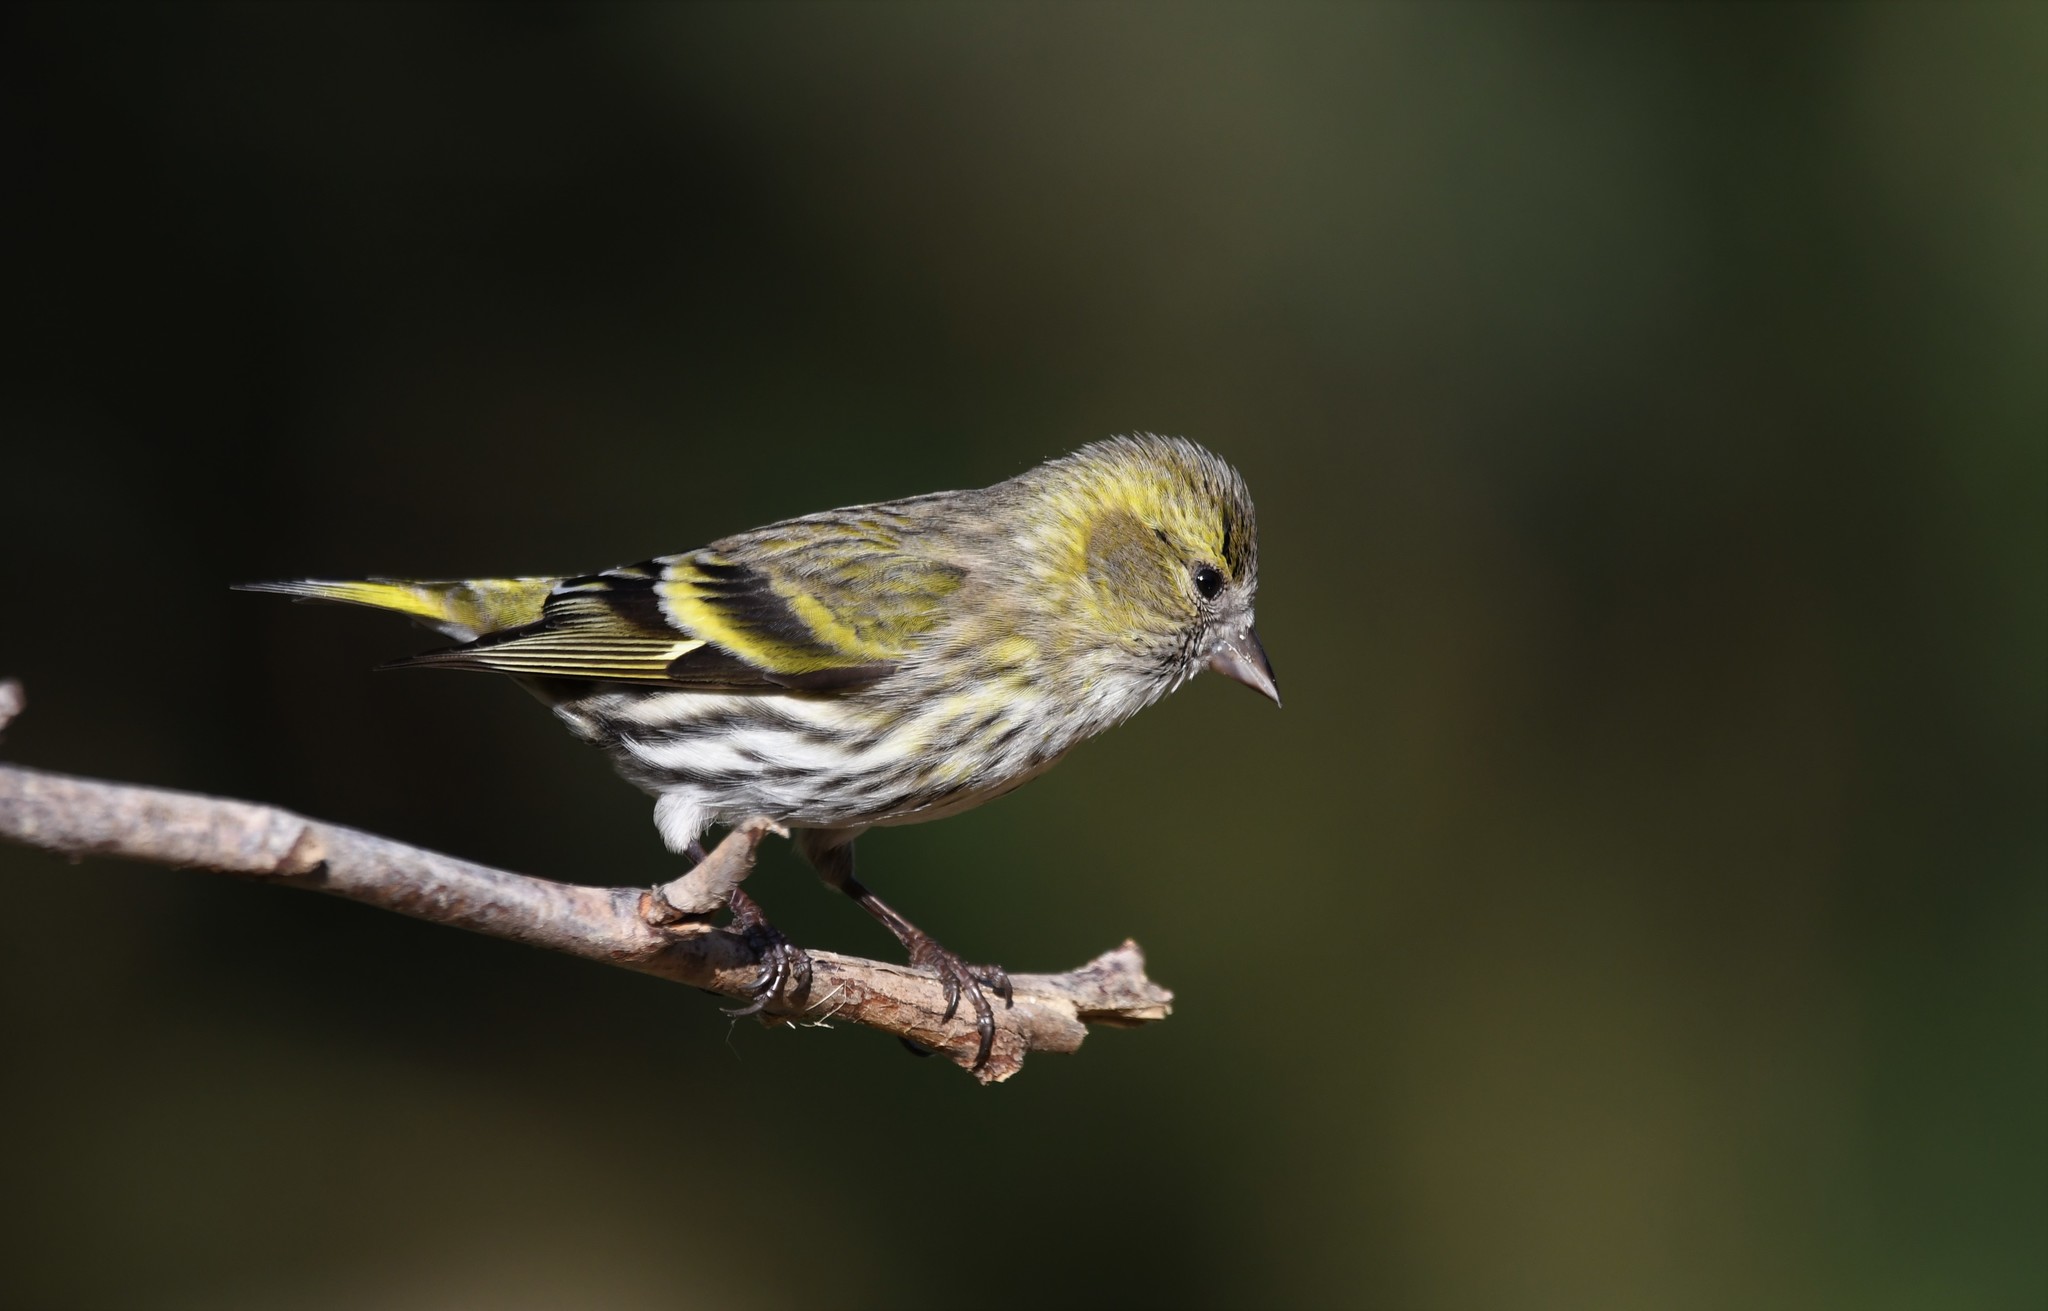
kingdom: Animalia
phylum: Chordata
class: Aves
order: Passeriformes
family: Fringillidae
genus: Spinus
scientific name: Spinus spinus
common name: Eurasian siskin
